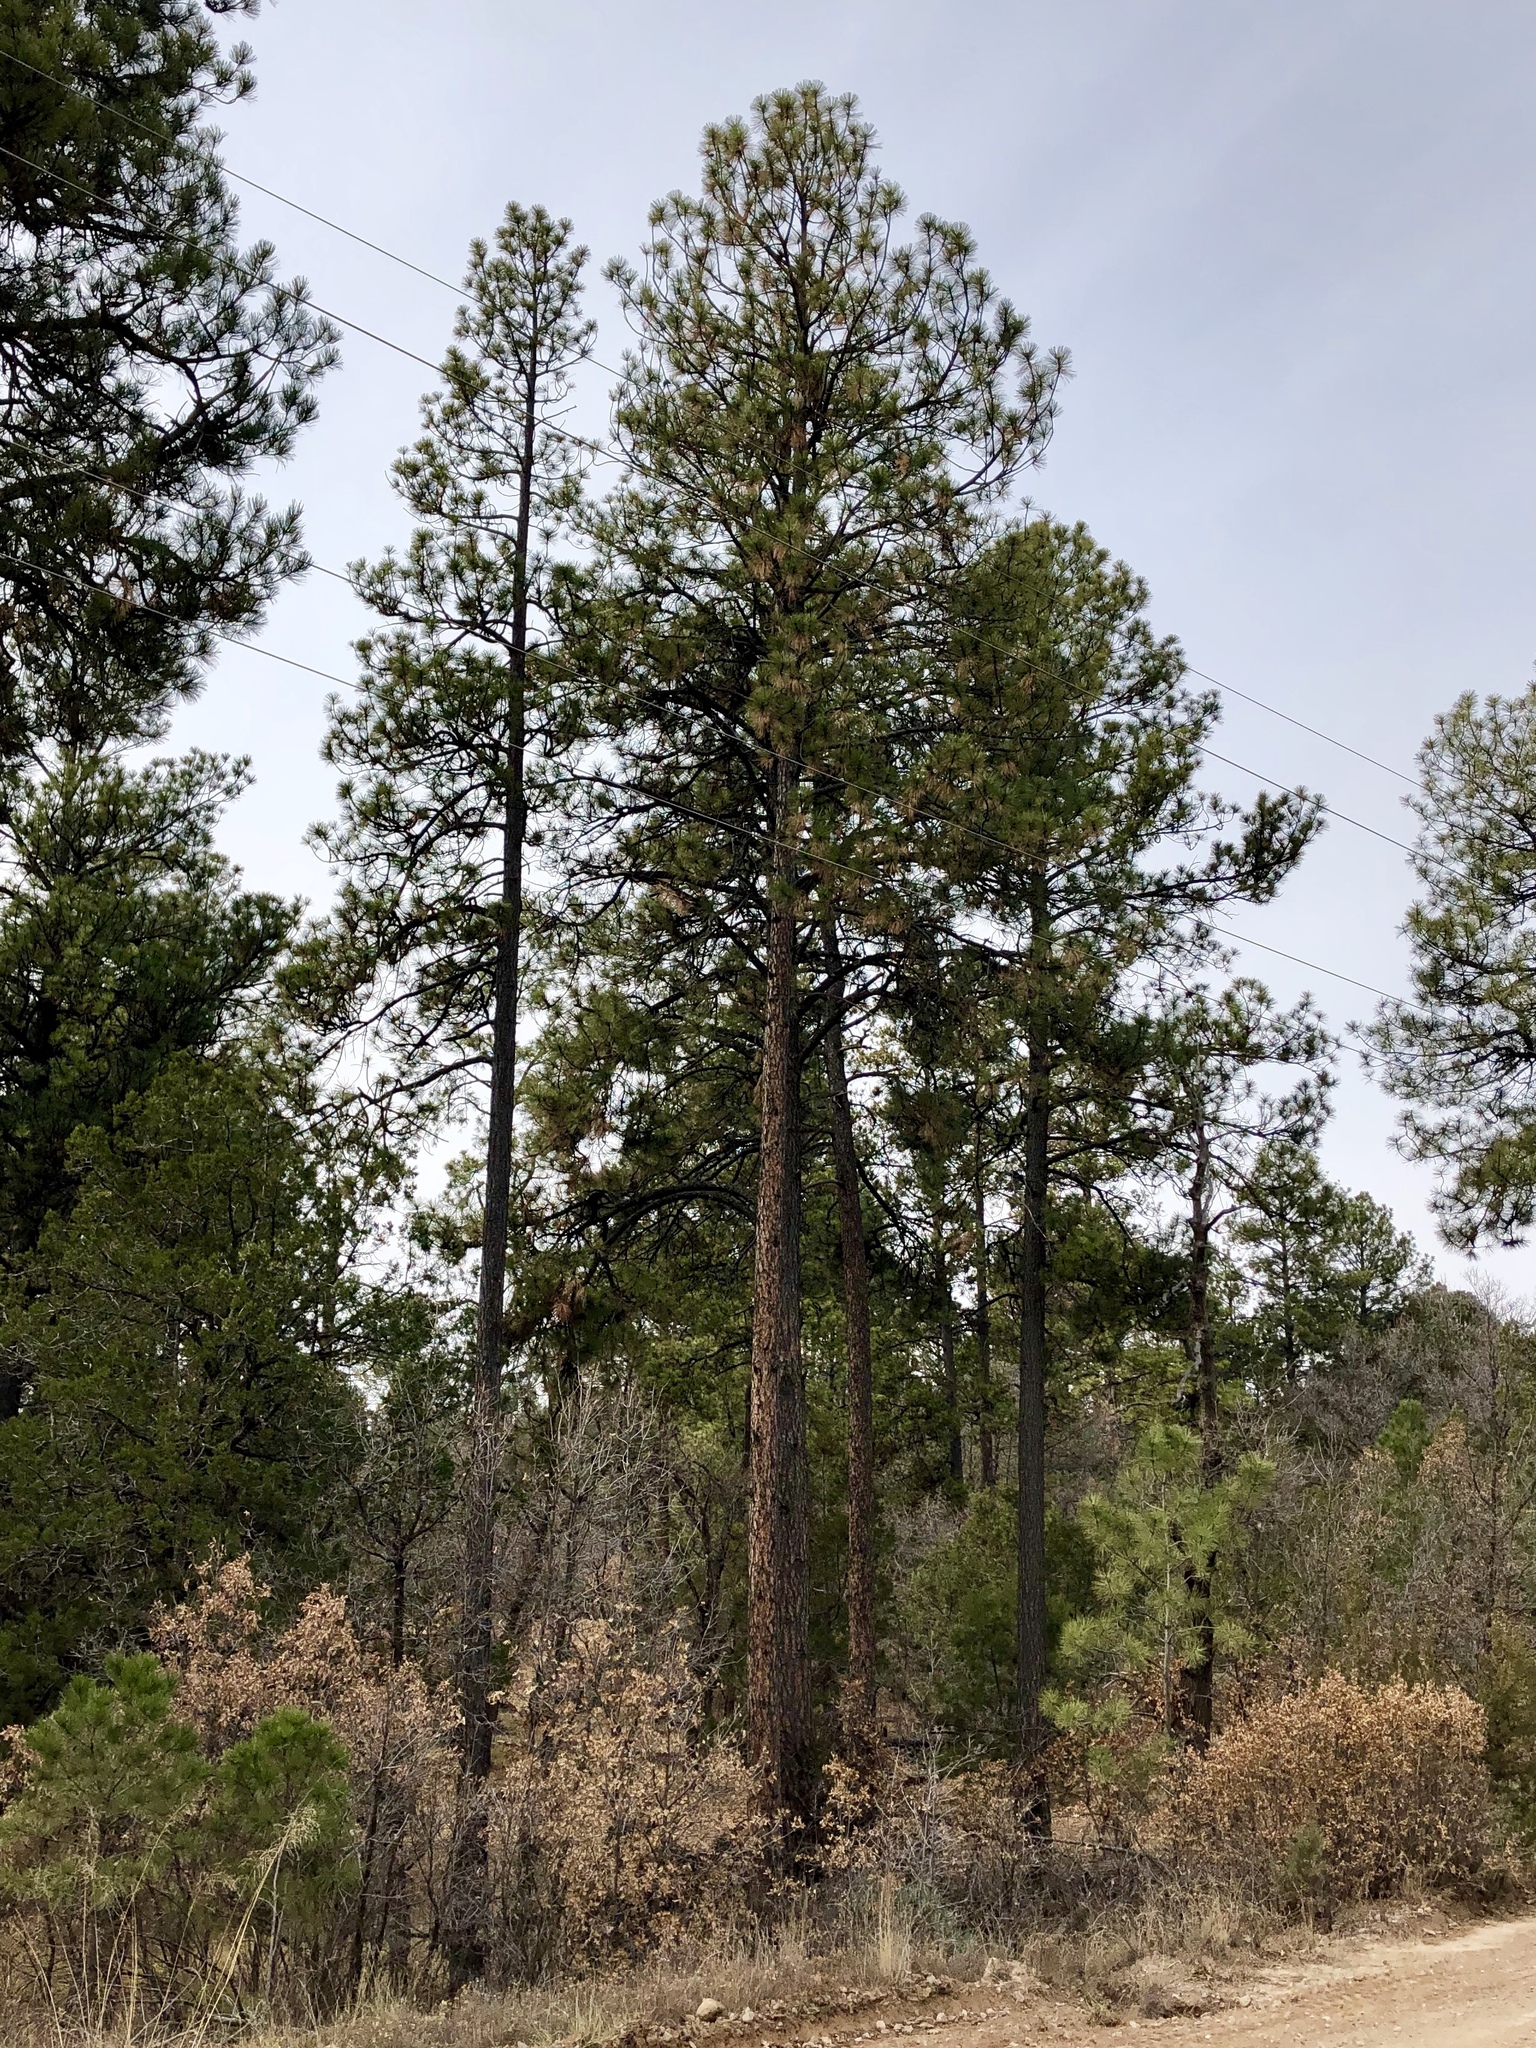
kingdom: Plantae
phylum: Tracheophyta
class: Pinopsida
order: Pinales
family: Pinaceae
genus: Pinus
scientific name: Pinus ponderosa
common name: Western yellow-pine
